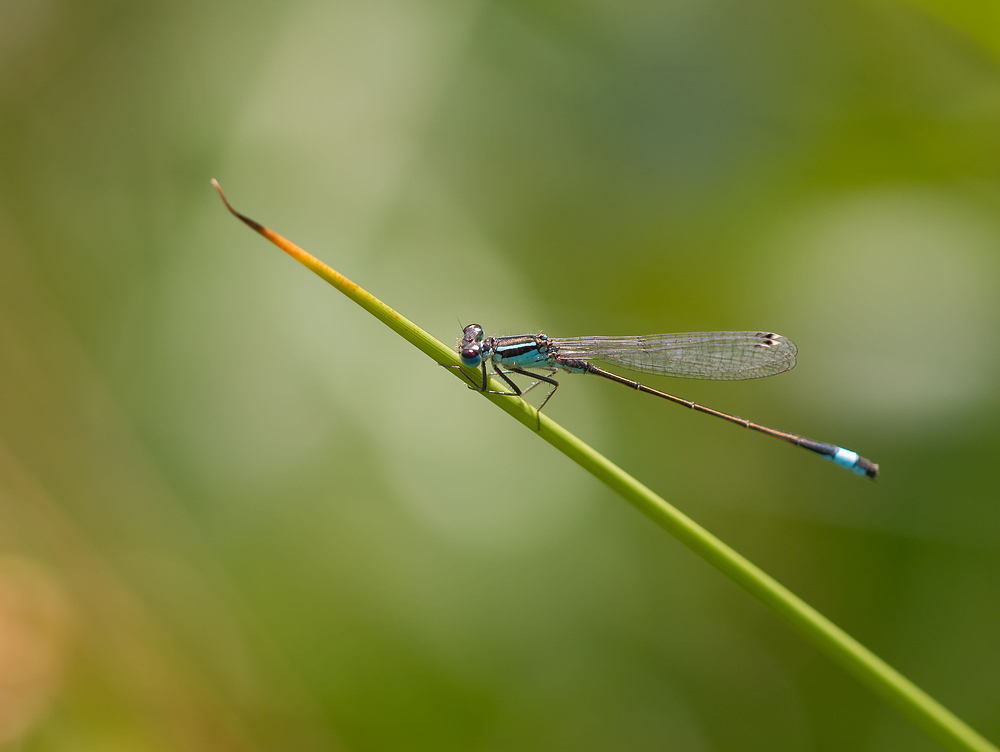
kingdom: Animalia
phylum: Arthropoda
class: Insecta
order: Odonata
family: Coenagrionidae
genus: Ischnura
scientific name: Ischnura elegans
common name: Blue-tailed damselfly
